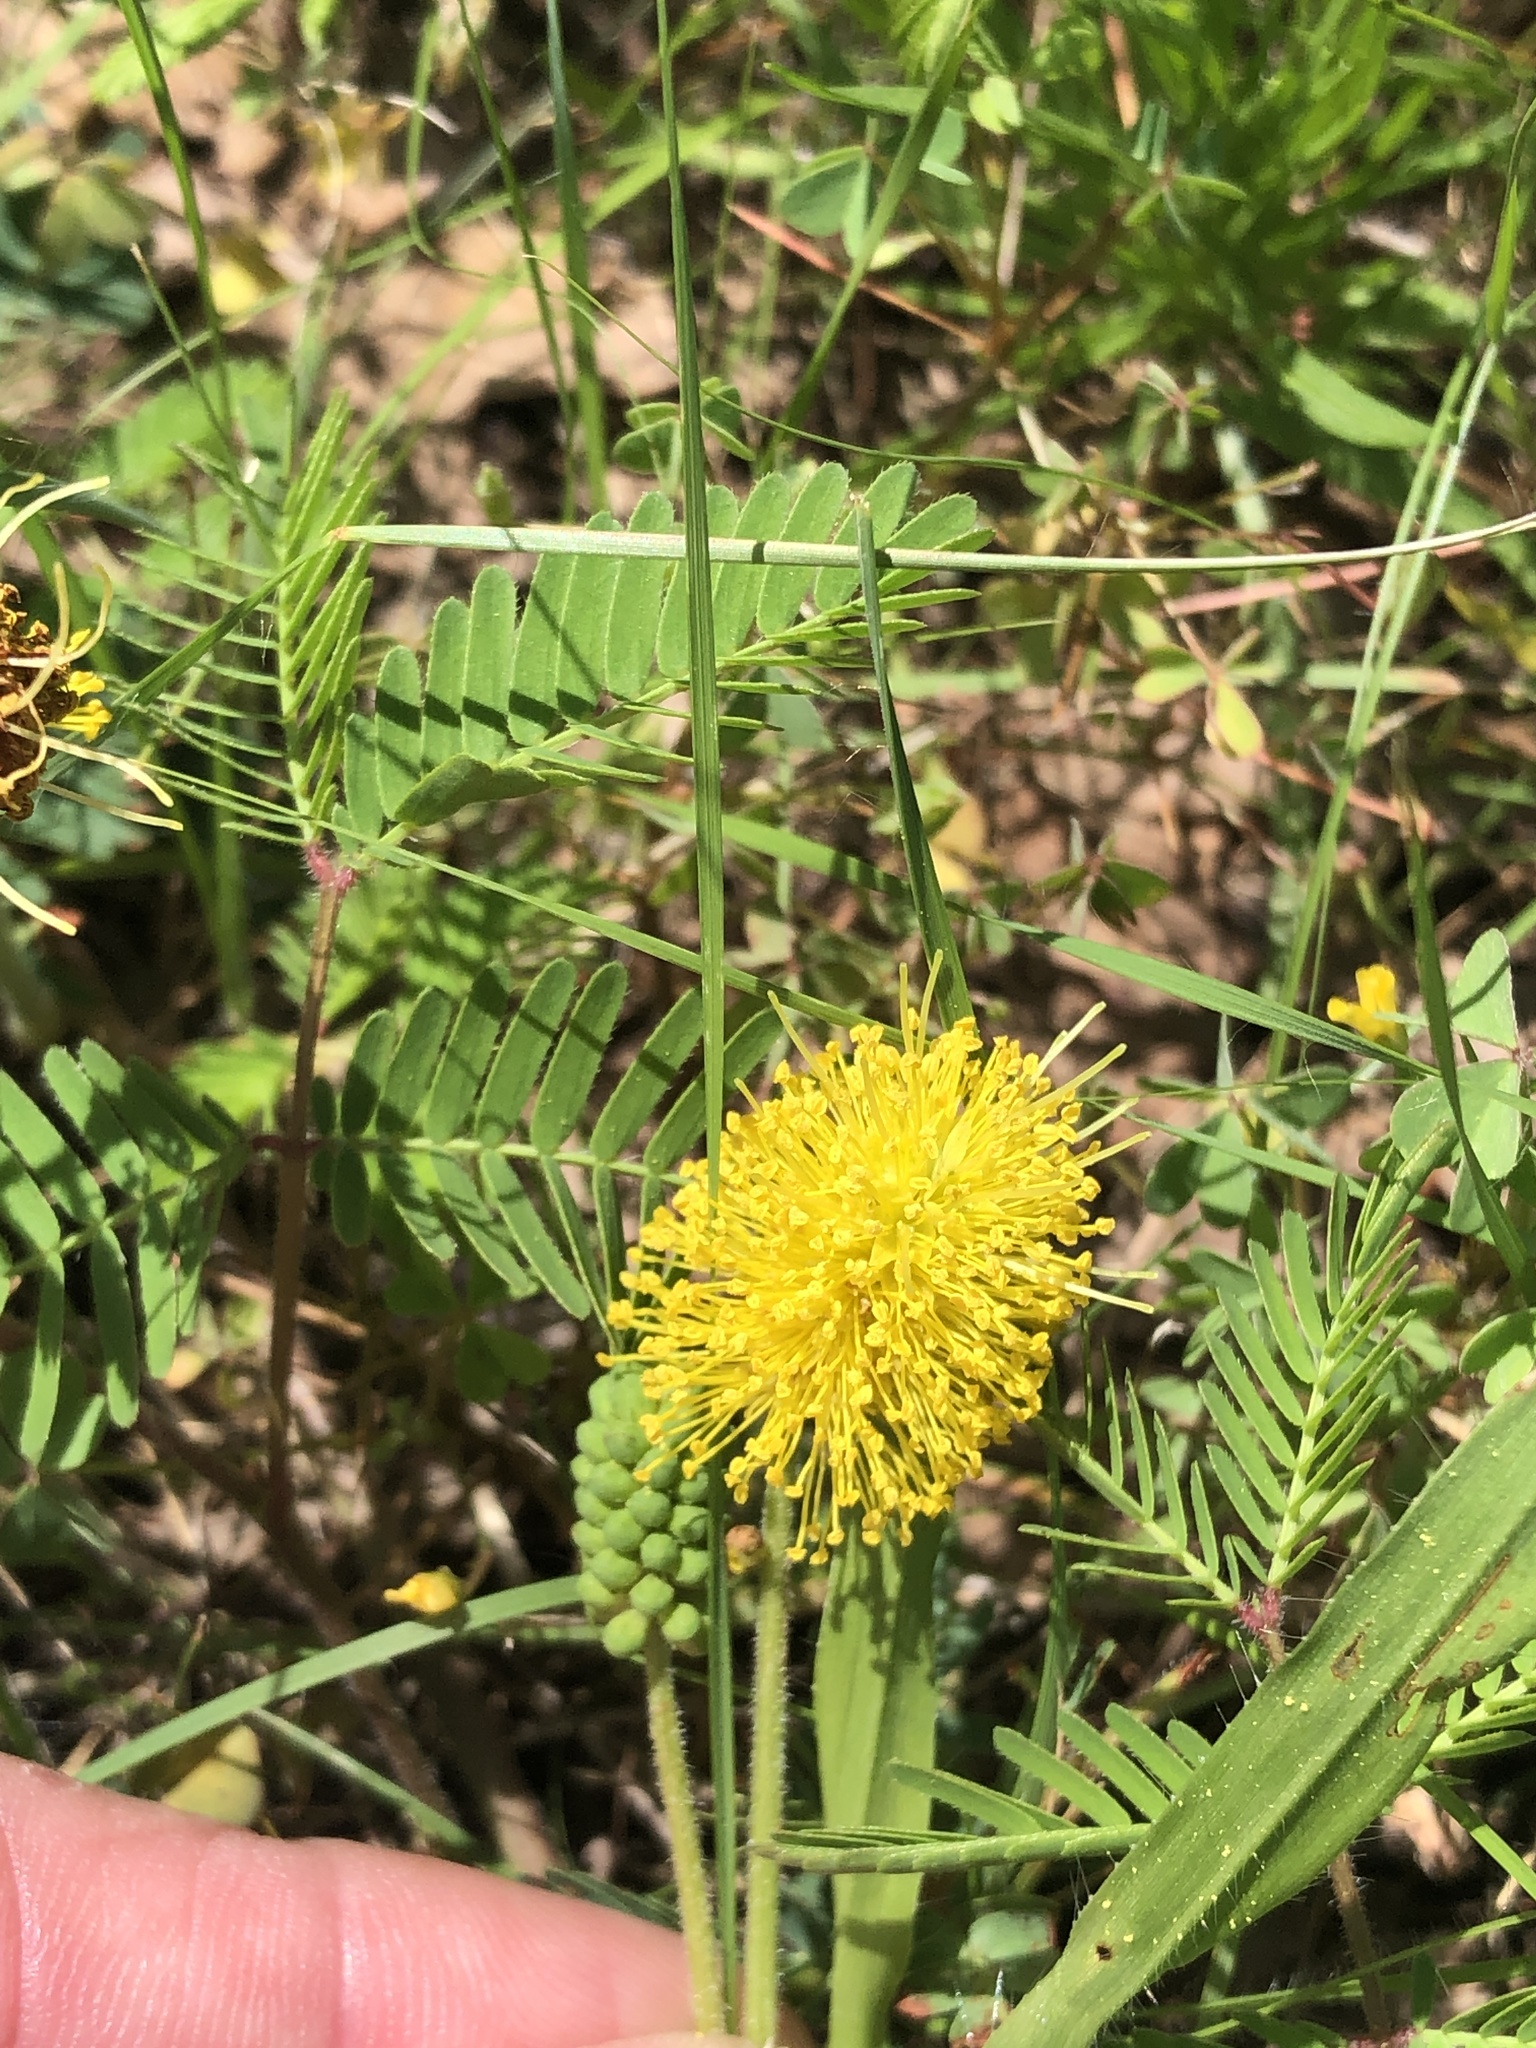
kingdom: Plantae
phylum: Tracheophyta
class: Magnoliopsida
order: Fabales
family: Fabaceae
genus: Neptunia
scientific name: Neptunia lutea
